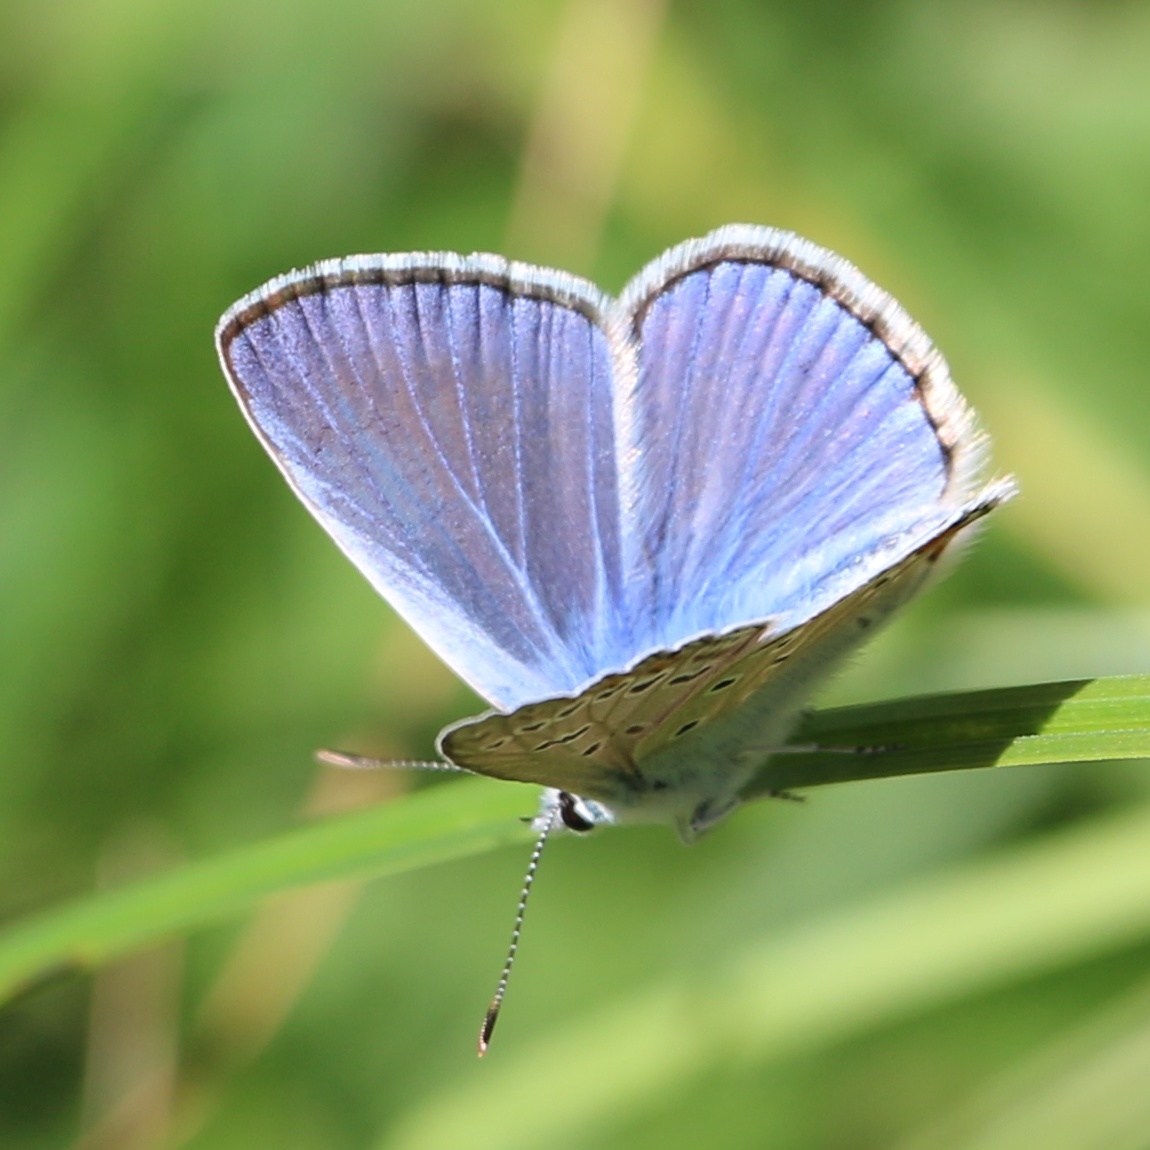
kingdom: Animalia
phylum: Arthropoda
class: Insecta
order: Lepidoptera
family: Lycaenidae
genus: Polyommatus
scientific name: Polyommatus icarus
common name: Common blue
